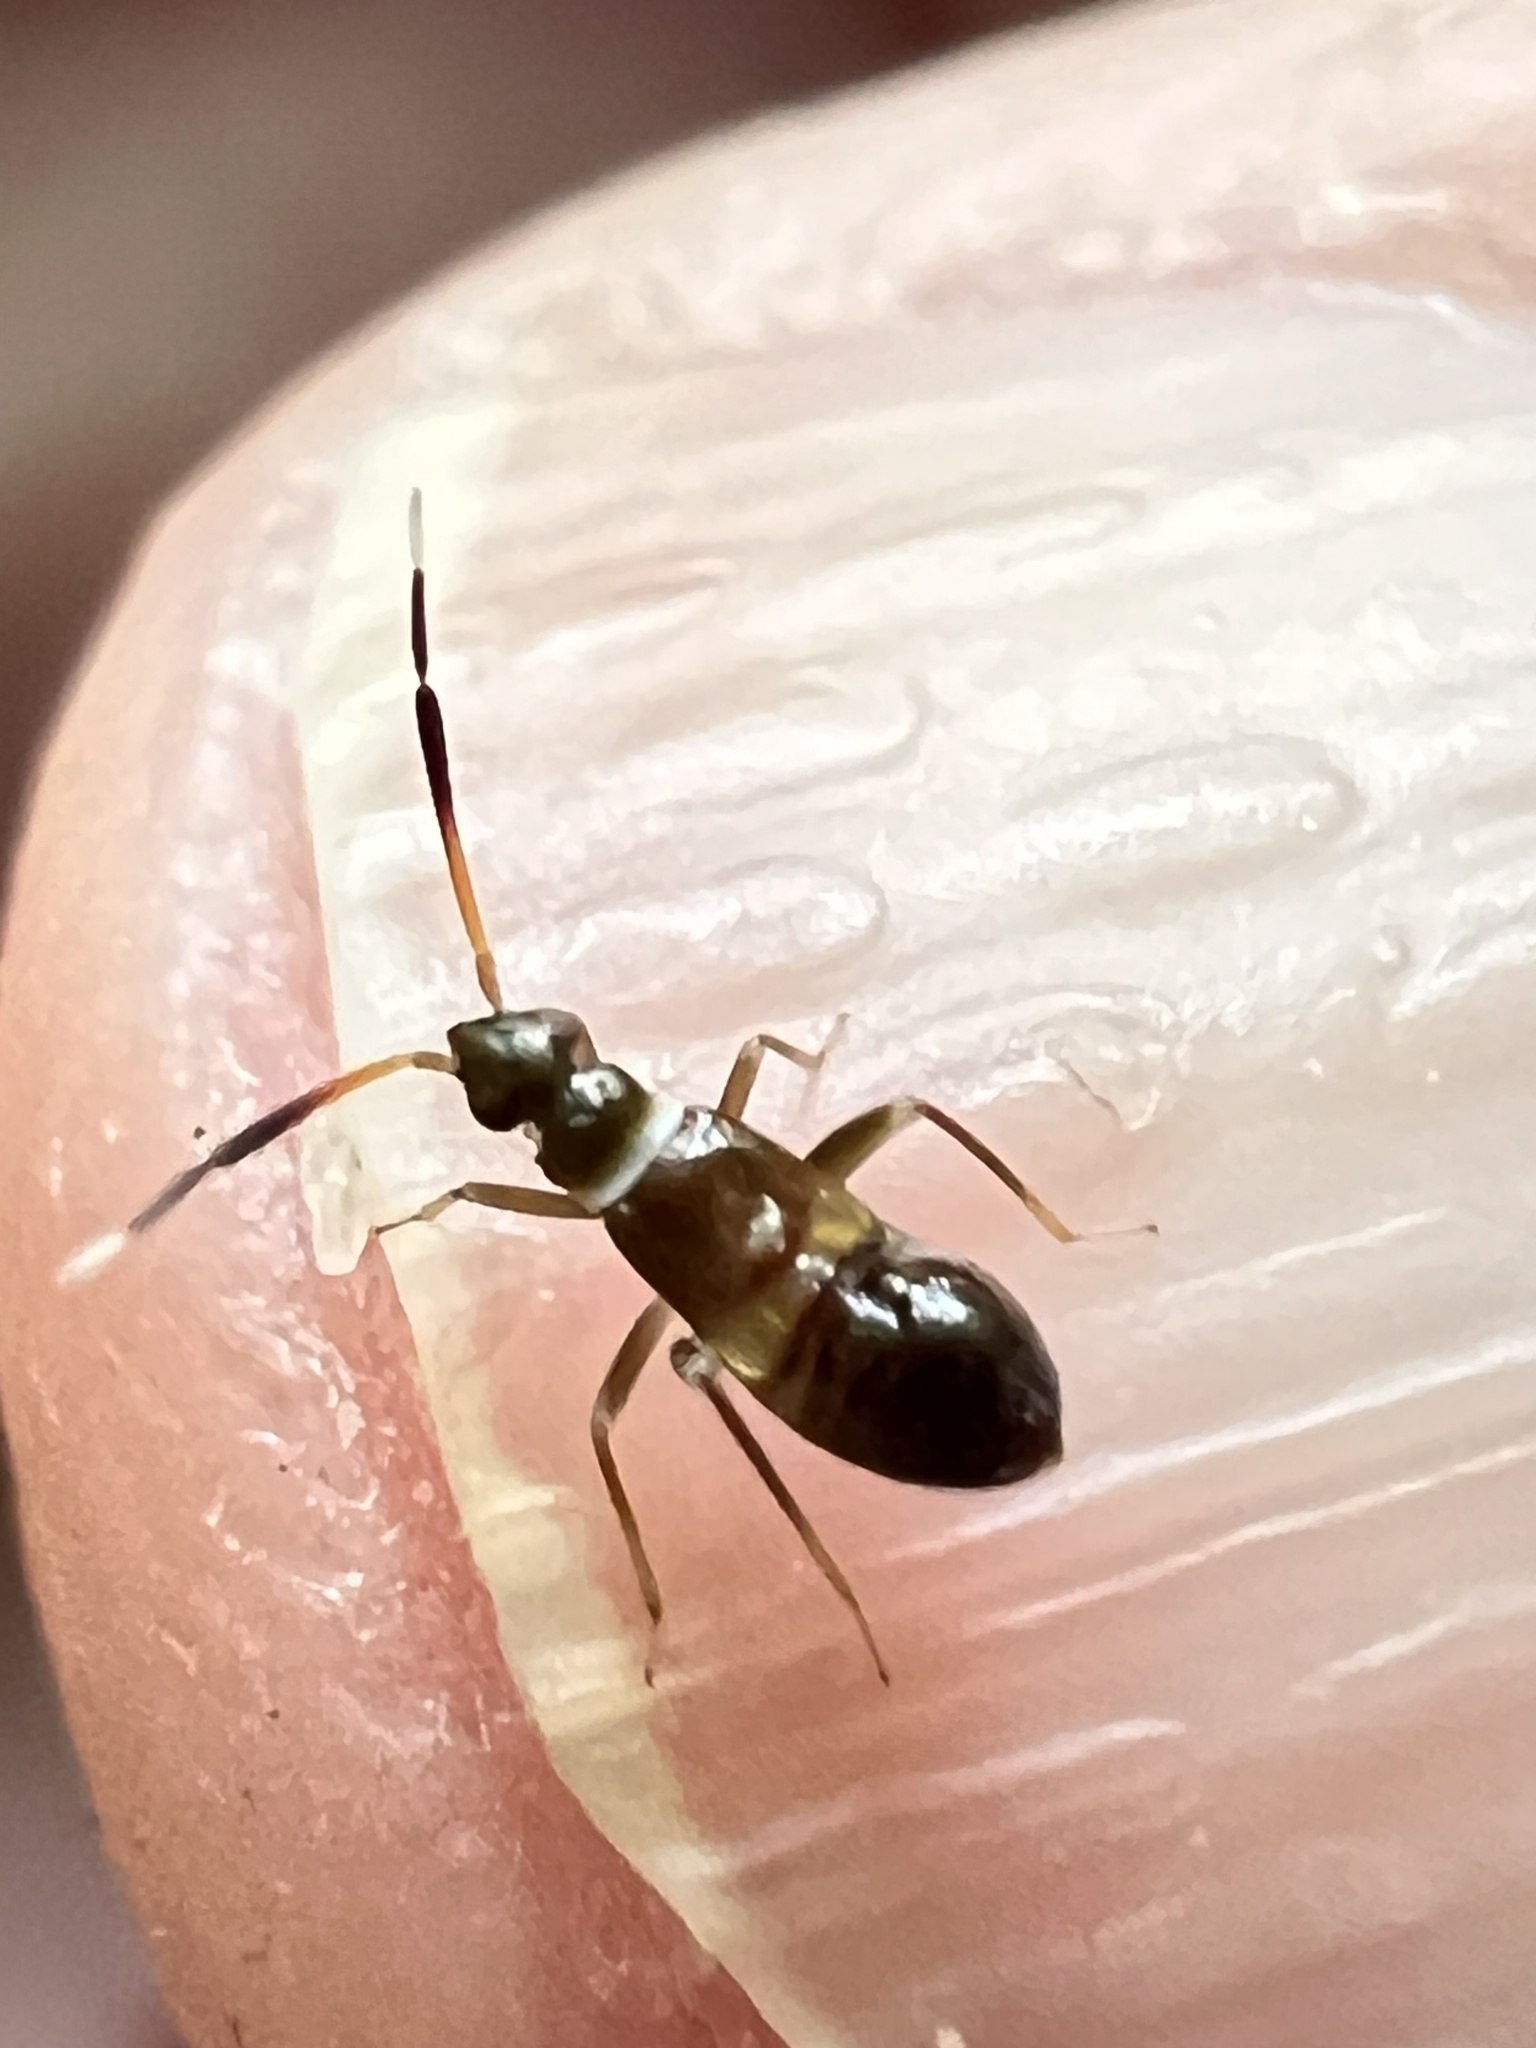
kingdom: Animalia
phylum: Arthropoda
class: Insecta
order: Hemiptera
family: Miridae
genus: Mecenopa
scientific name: Mecenopa albiapex
